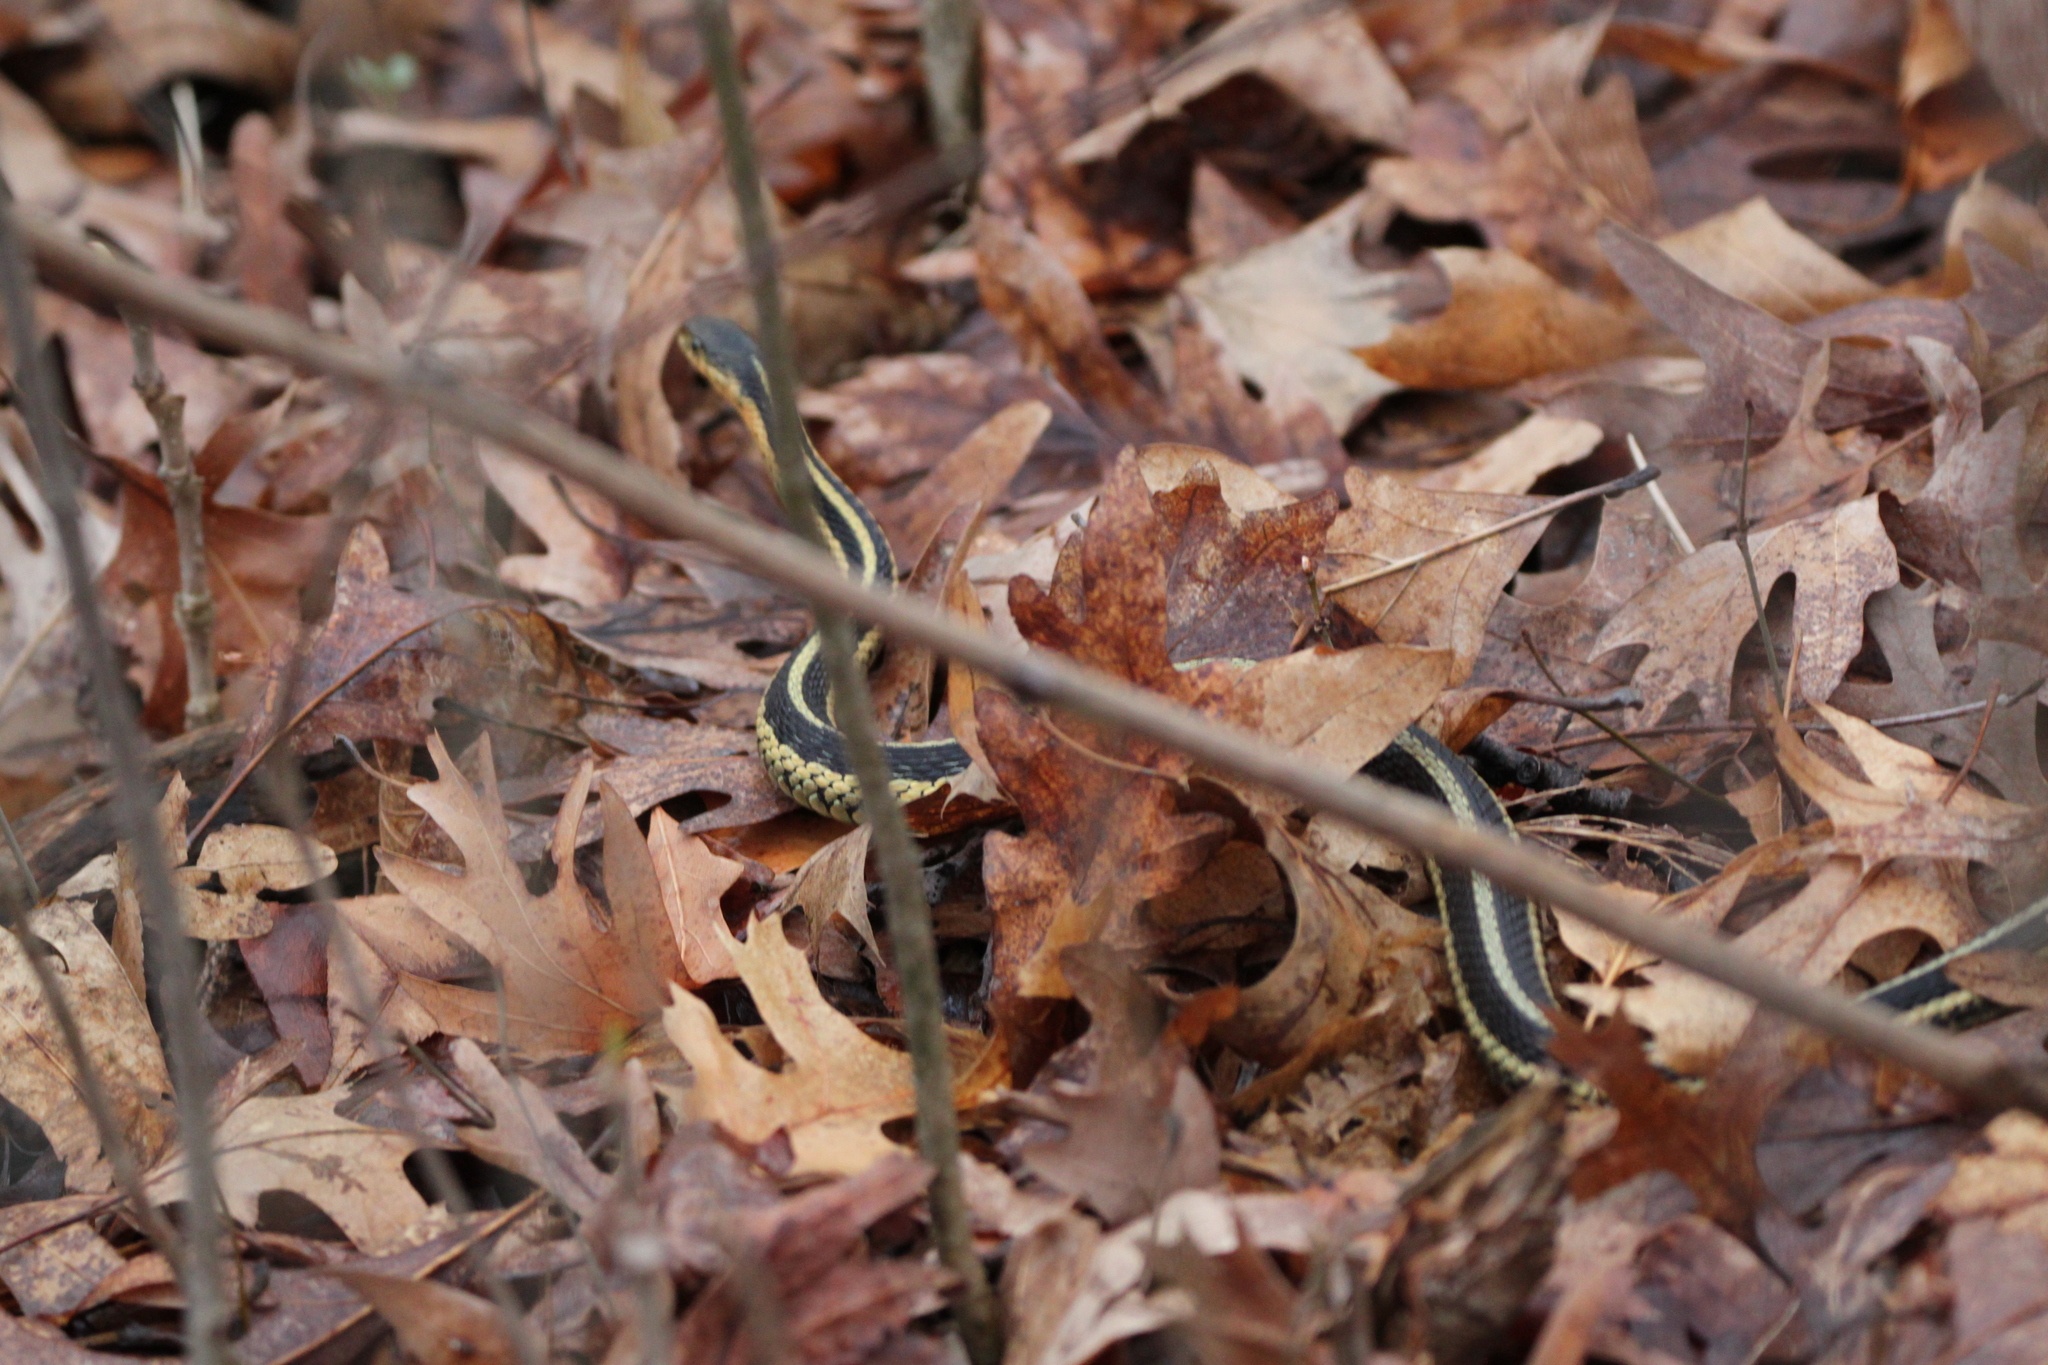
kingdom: Animalia
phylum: Chordata
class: Squamata
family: Colubridae
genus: Thamnophis
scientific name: Thamnophis sirtalis
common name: Common garter snake
